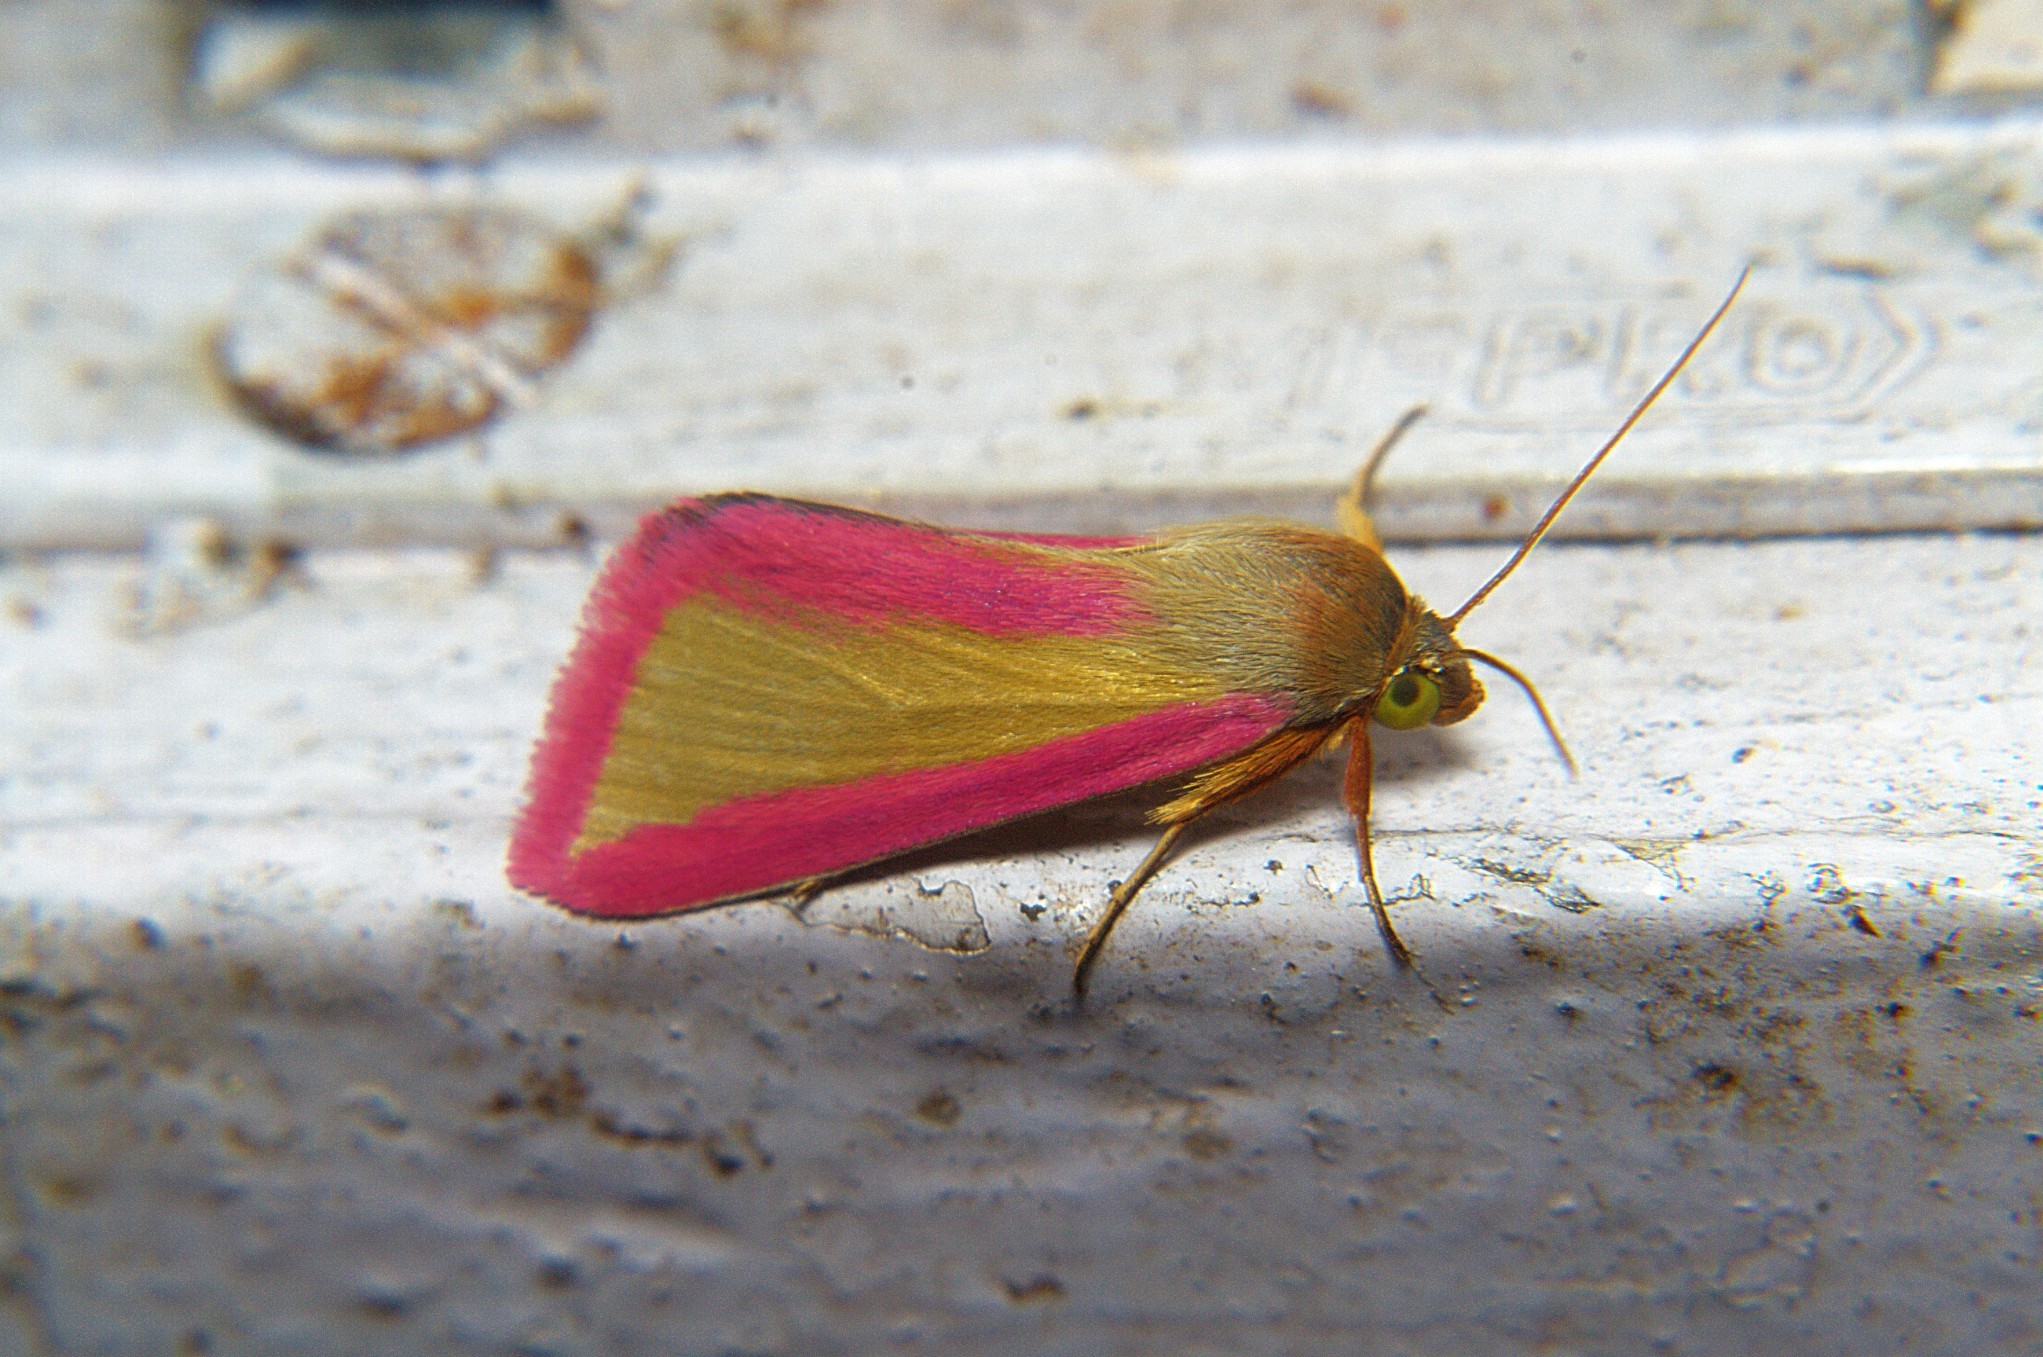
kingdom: Animalia
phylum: Arthropoda
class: Insecta
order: Lepidoptera
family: Noctuidae
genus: Adisura
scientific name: Adisura marginalis
